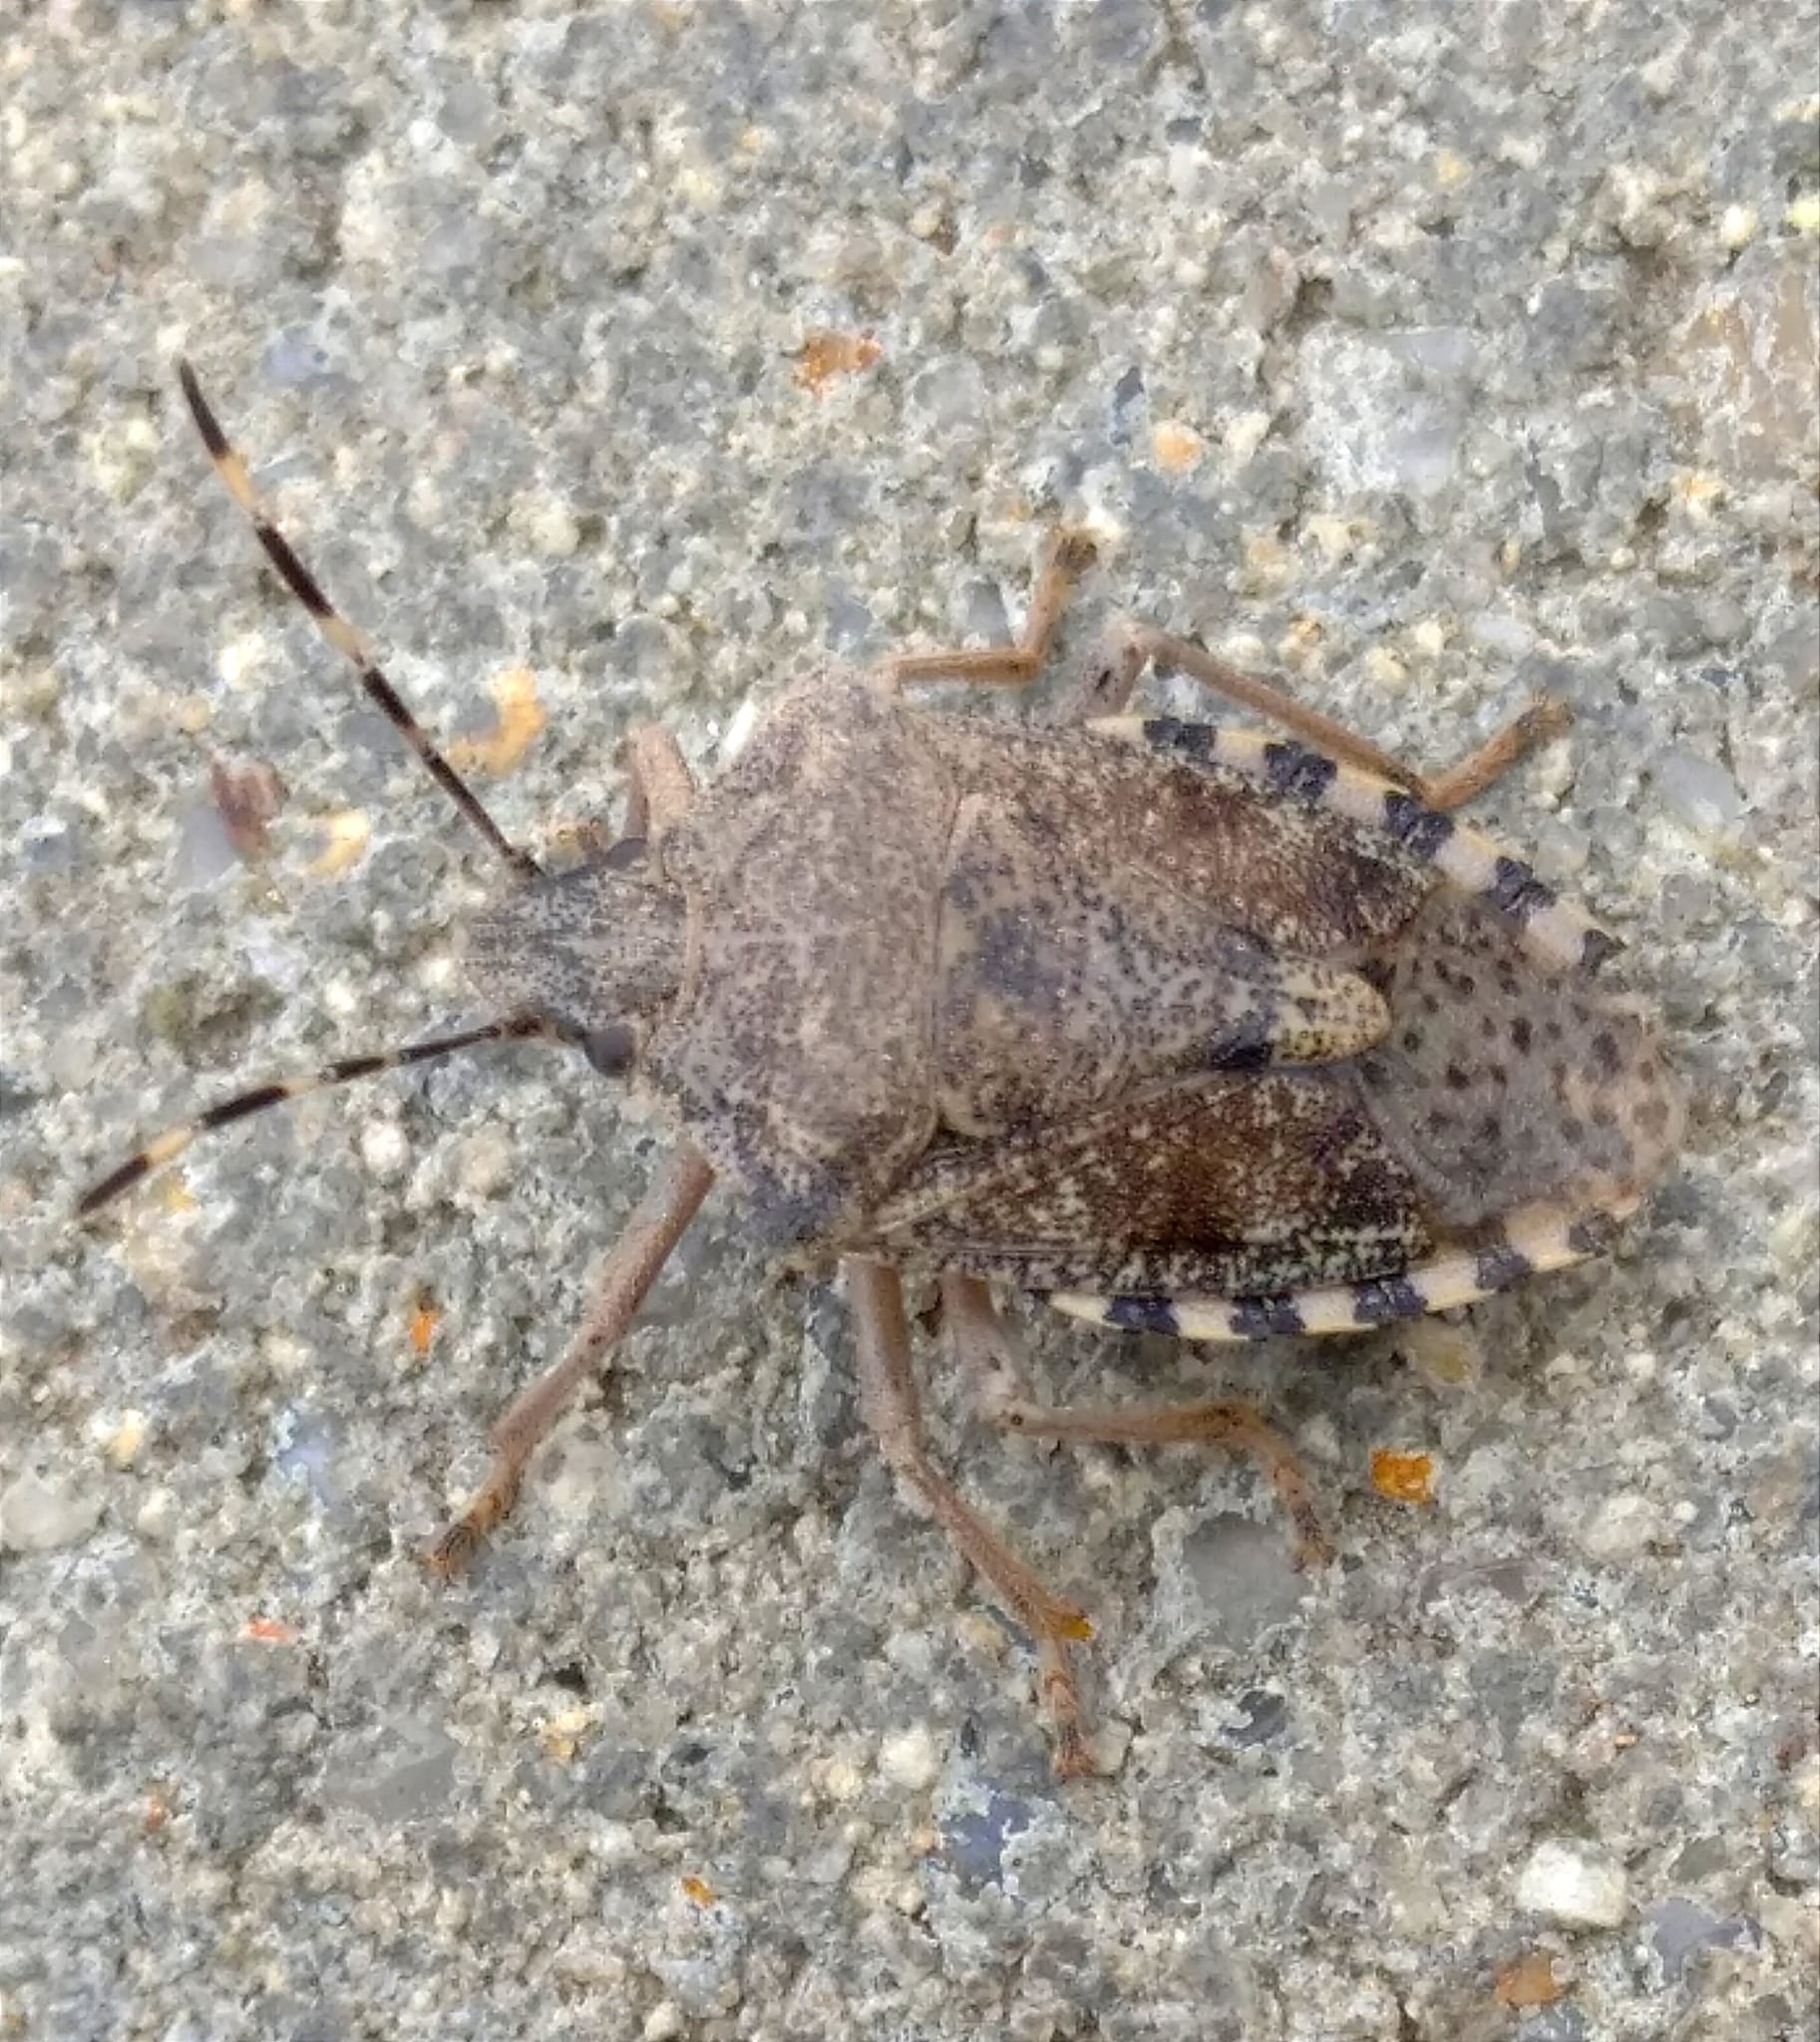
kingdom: Animalia
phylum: Arthropoda
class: Insecta
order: Hemiptera
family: Pentatomidae
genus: Rhaphigaster
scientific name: Rhaphigaster nebulosa
